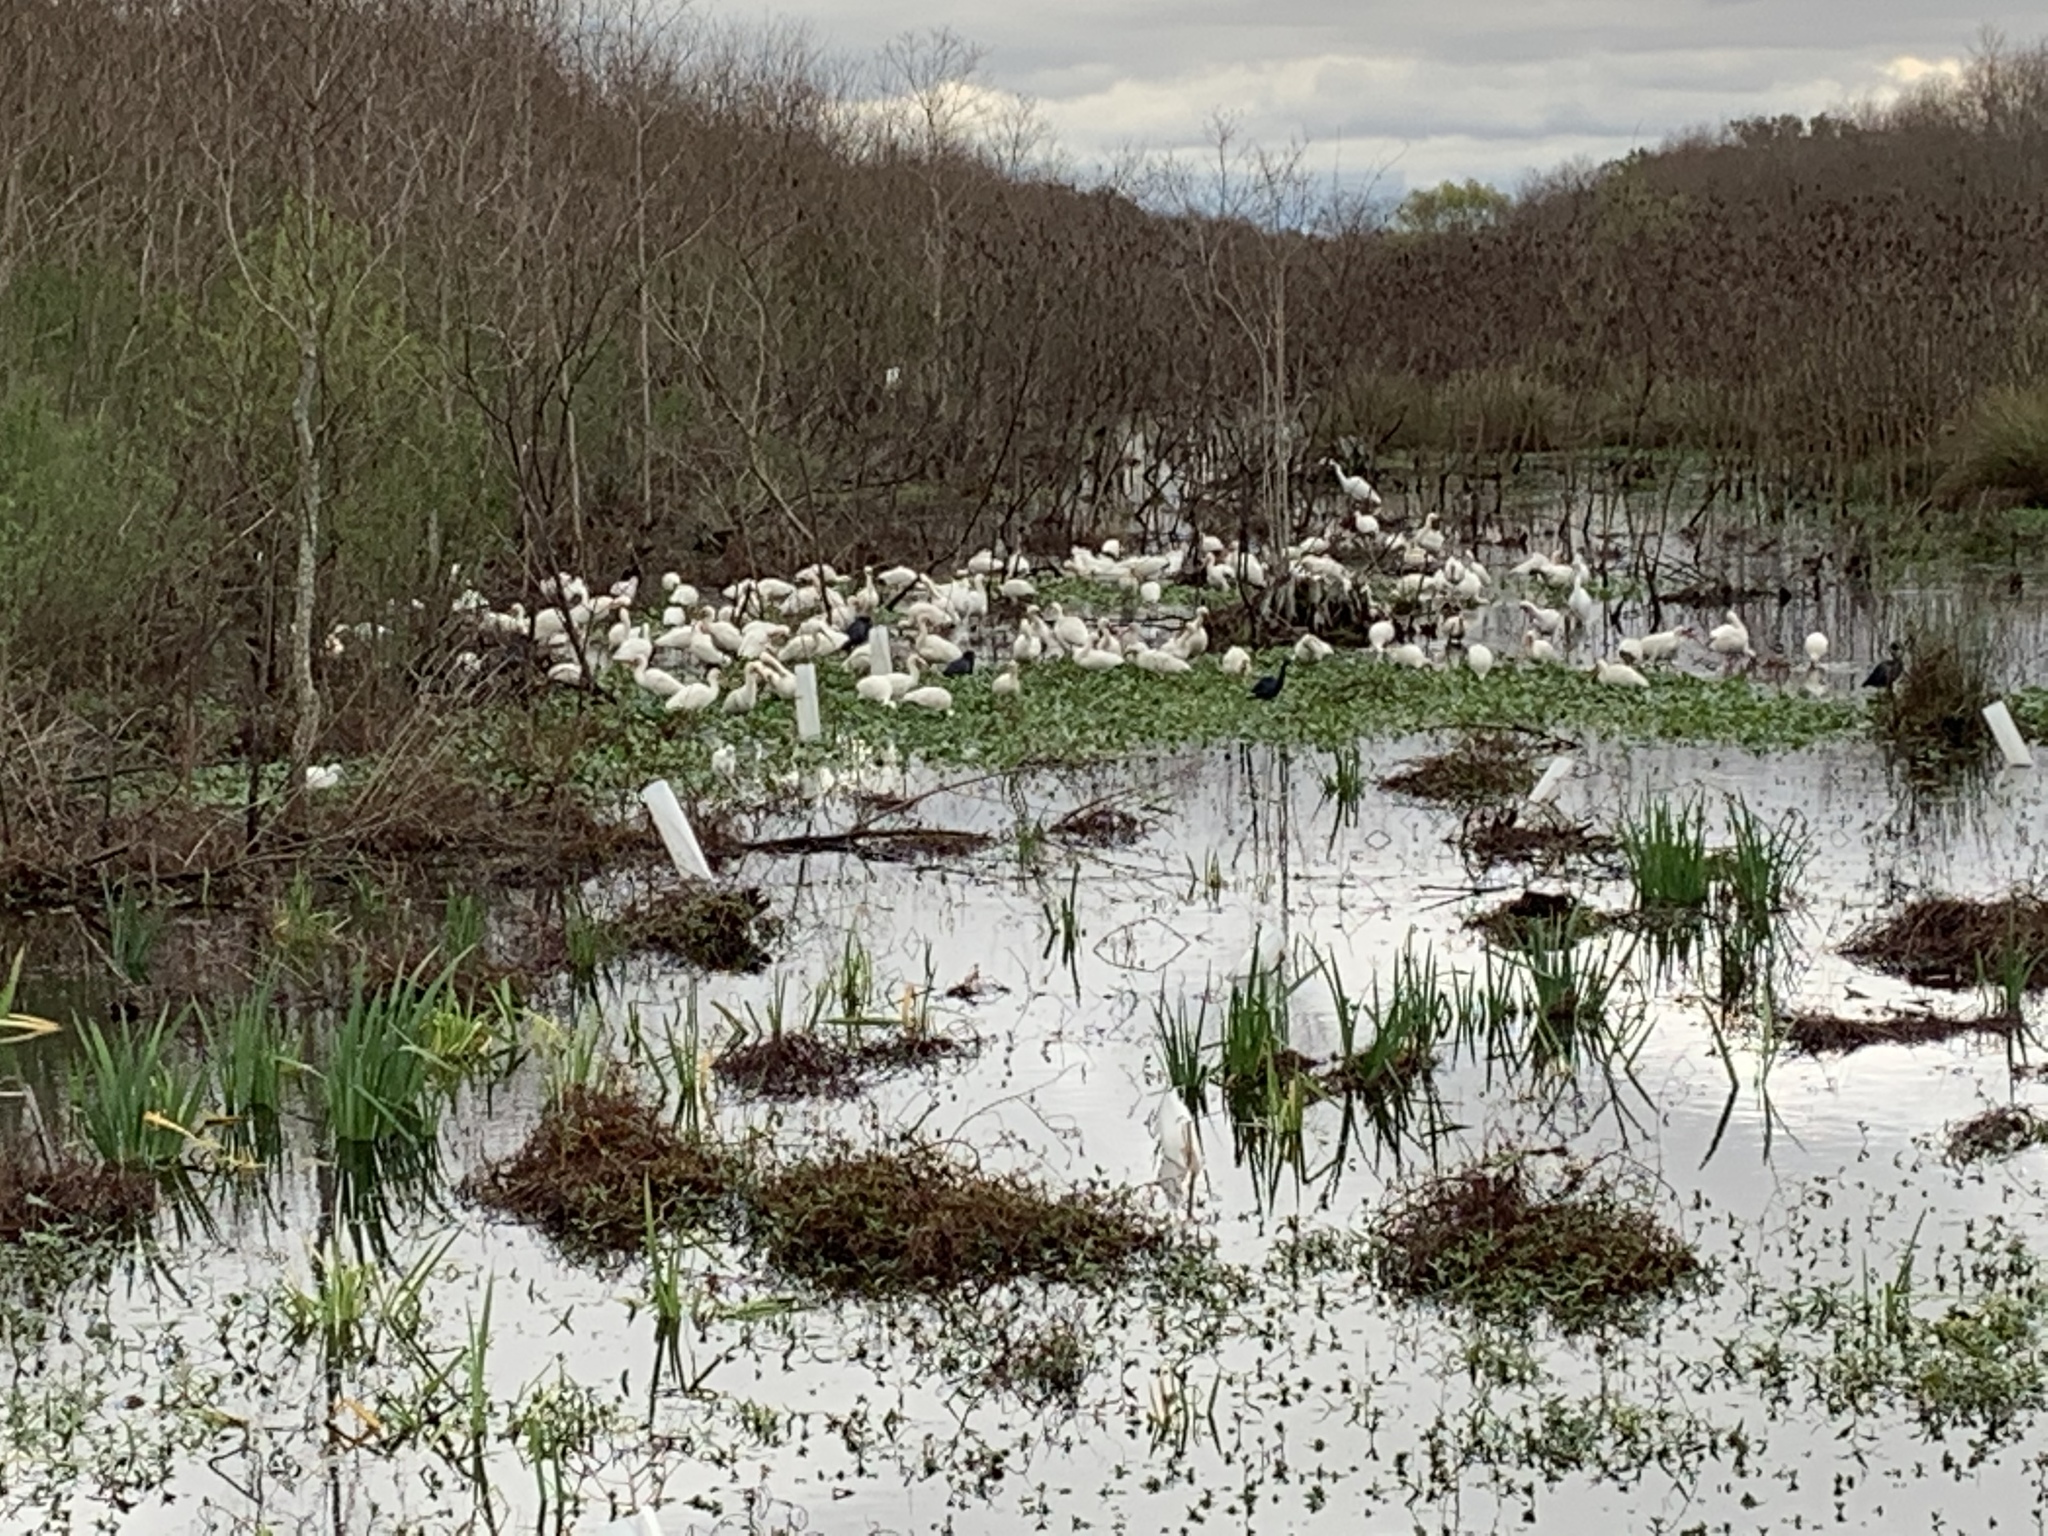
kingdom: Animalia
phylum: Chordata
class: Aves
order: Pelecaniformes
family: Threskiornithidae
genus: Eudocimus
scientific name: Eudocimus albus
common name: White ibis
